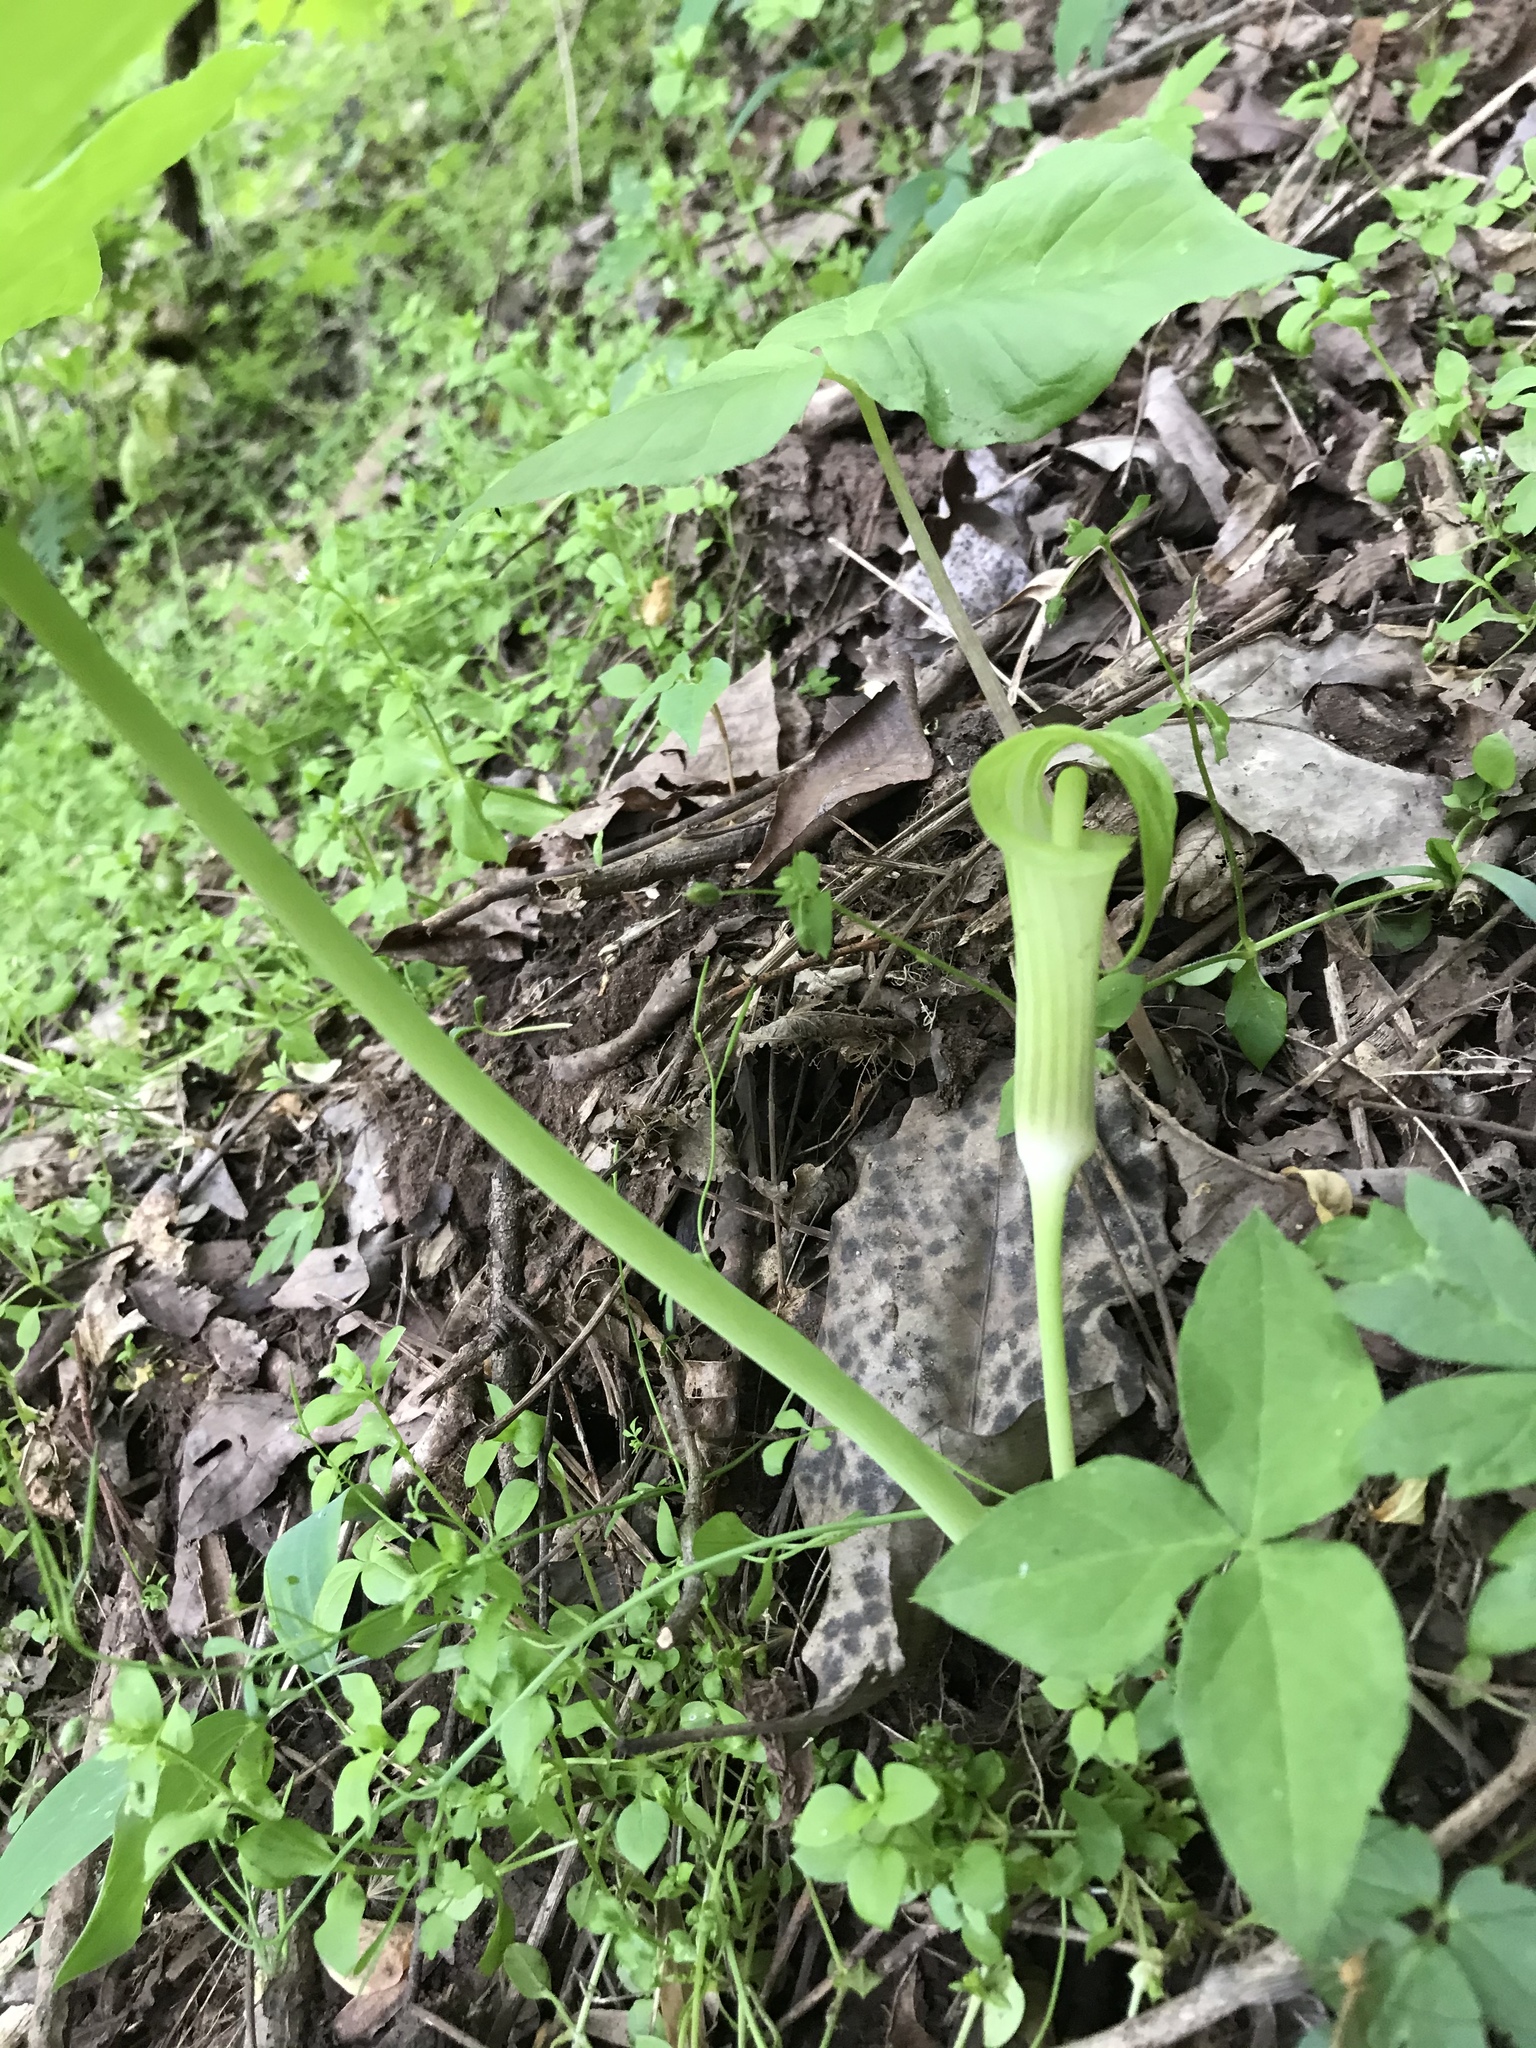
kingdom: Plantae
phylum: Tracheophyta
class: Liliopsida
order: Alismatales
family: Araceae
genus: Arisaema
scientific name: Arisaema triphyllum
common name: Jack-in-the-pulpit
